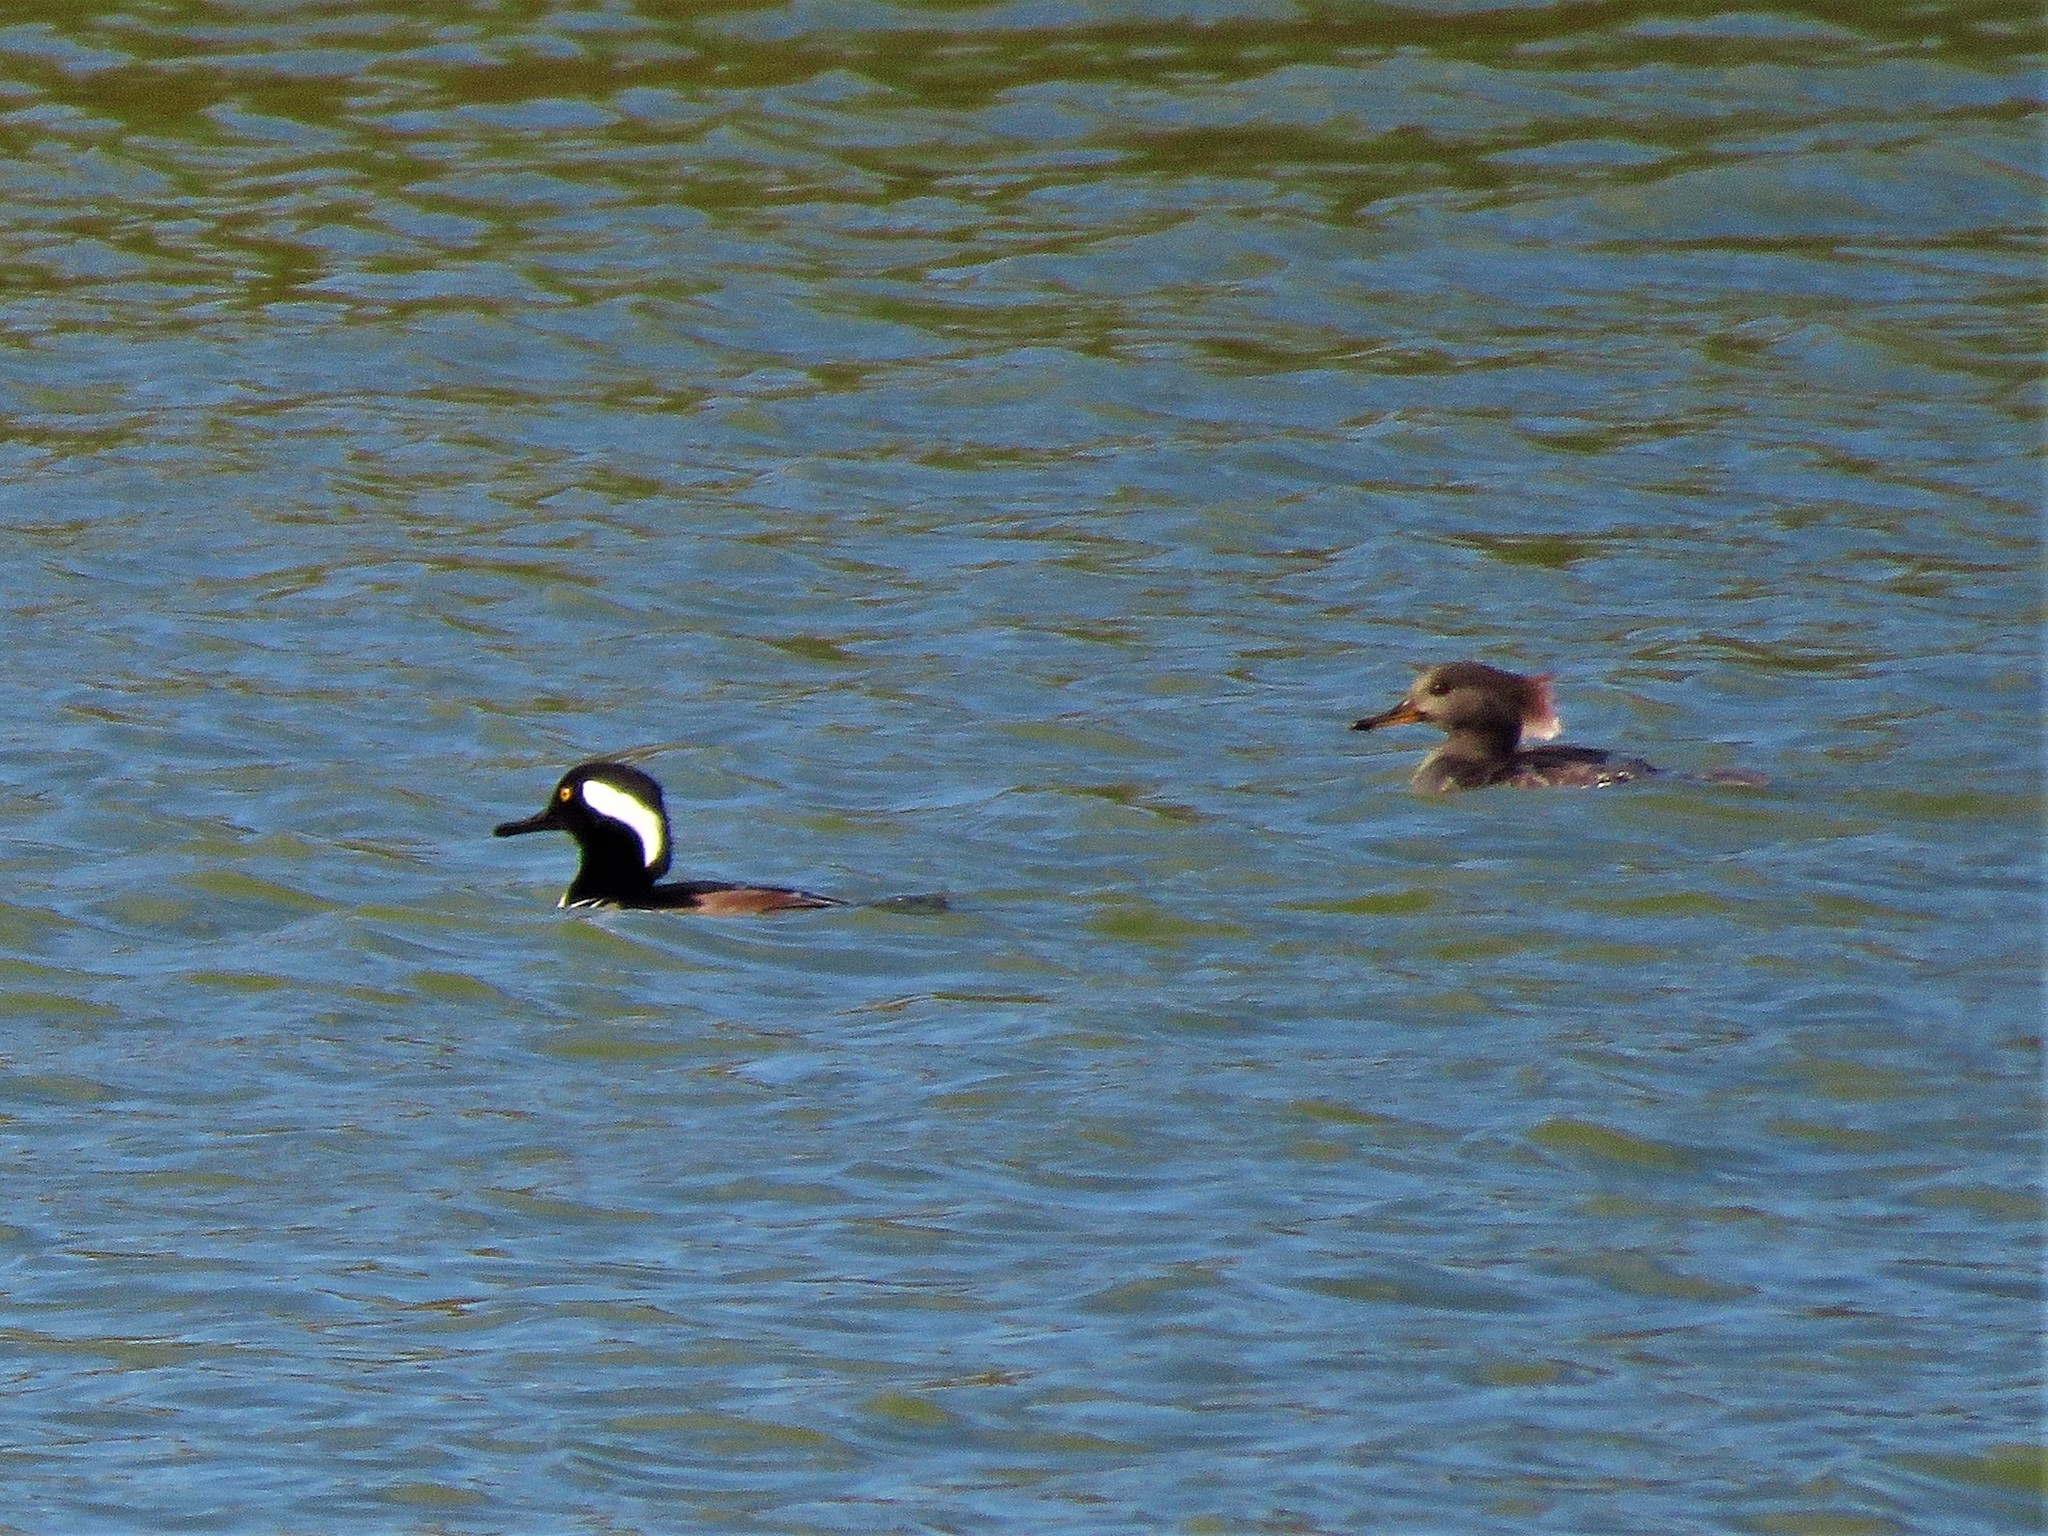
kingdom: Animalia
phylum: Chordata
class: Aves
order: Anseriformes
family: Anatidae
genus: Lophodytes
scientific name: Lophodytes cucullatus
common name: Hooded merganser
